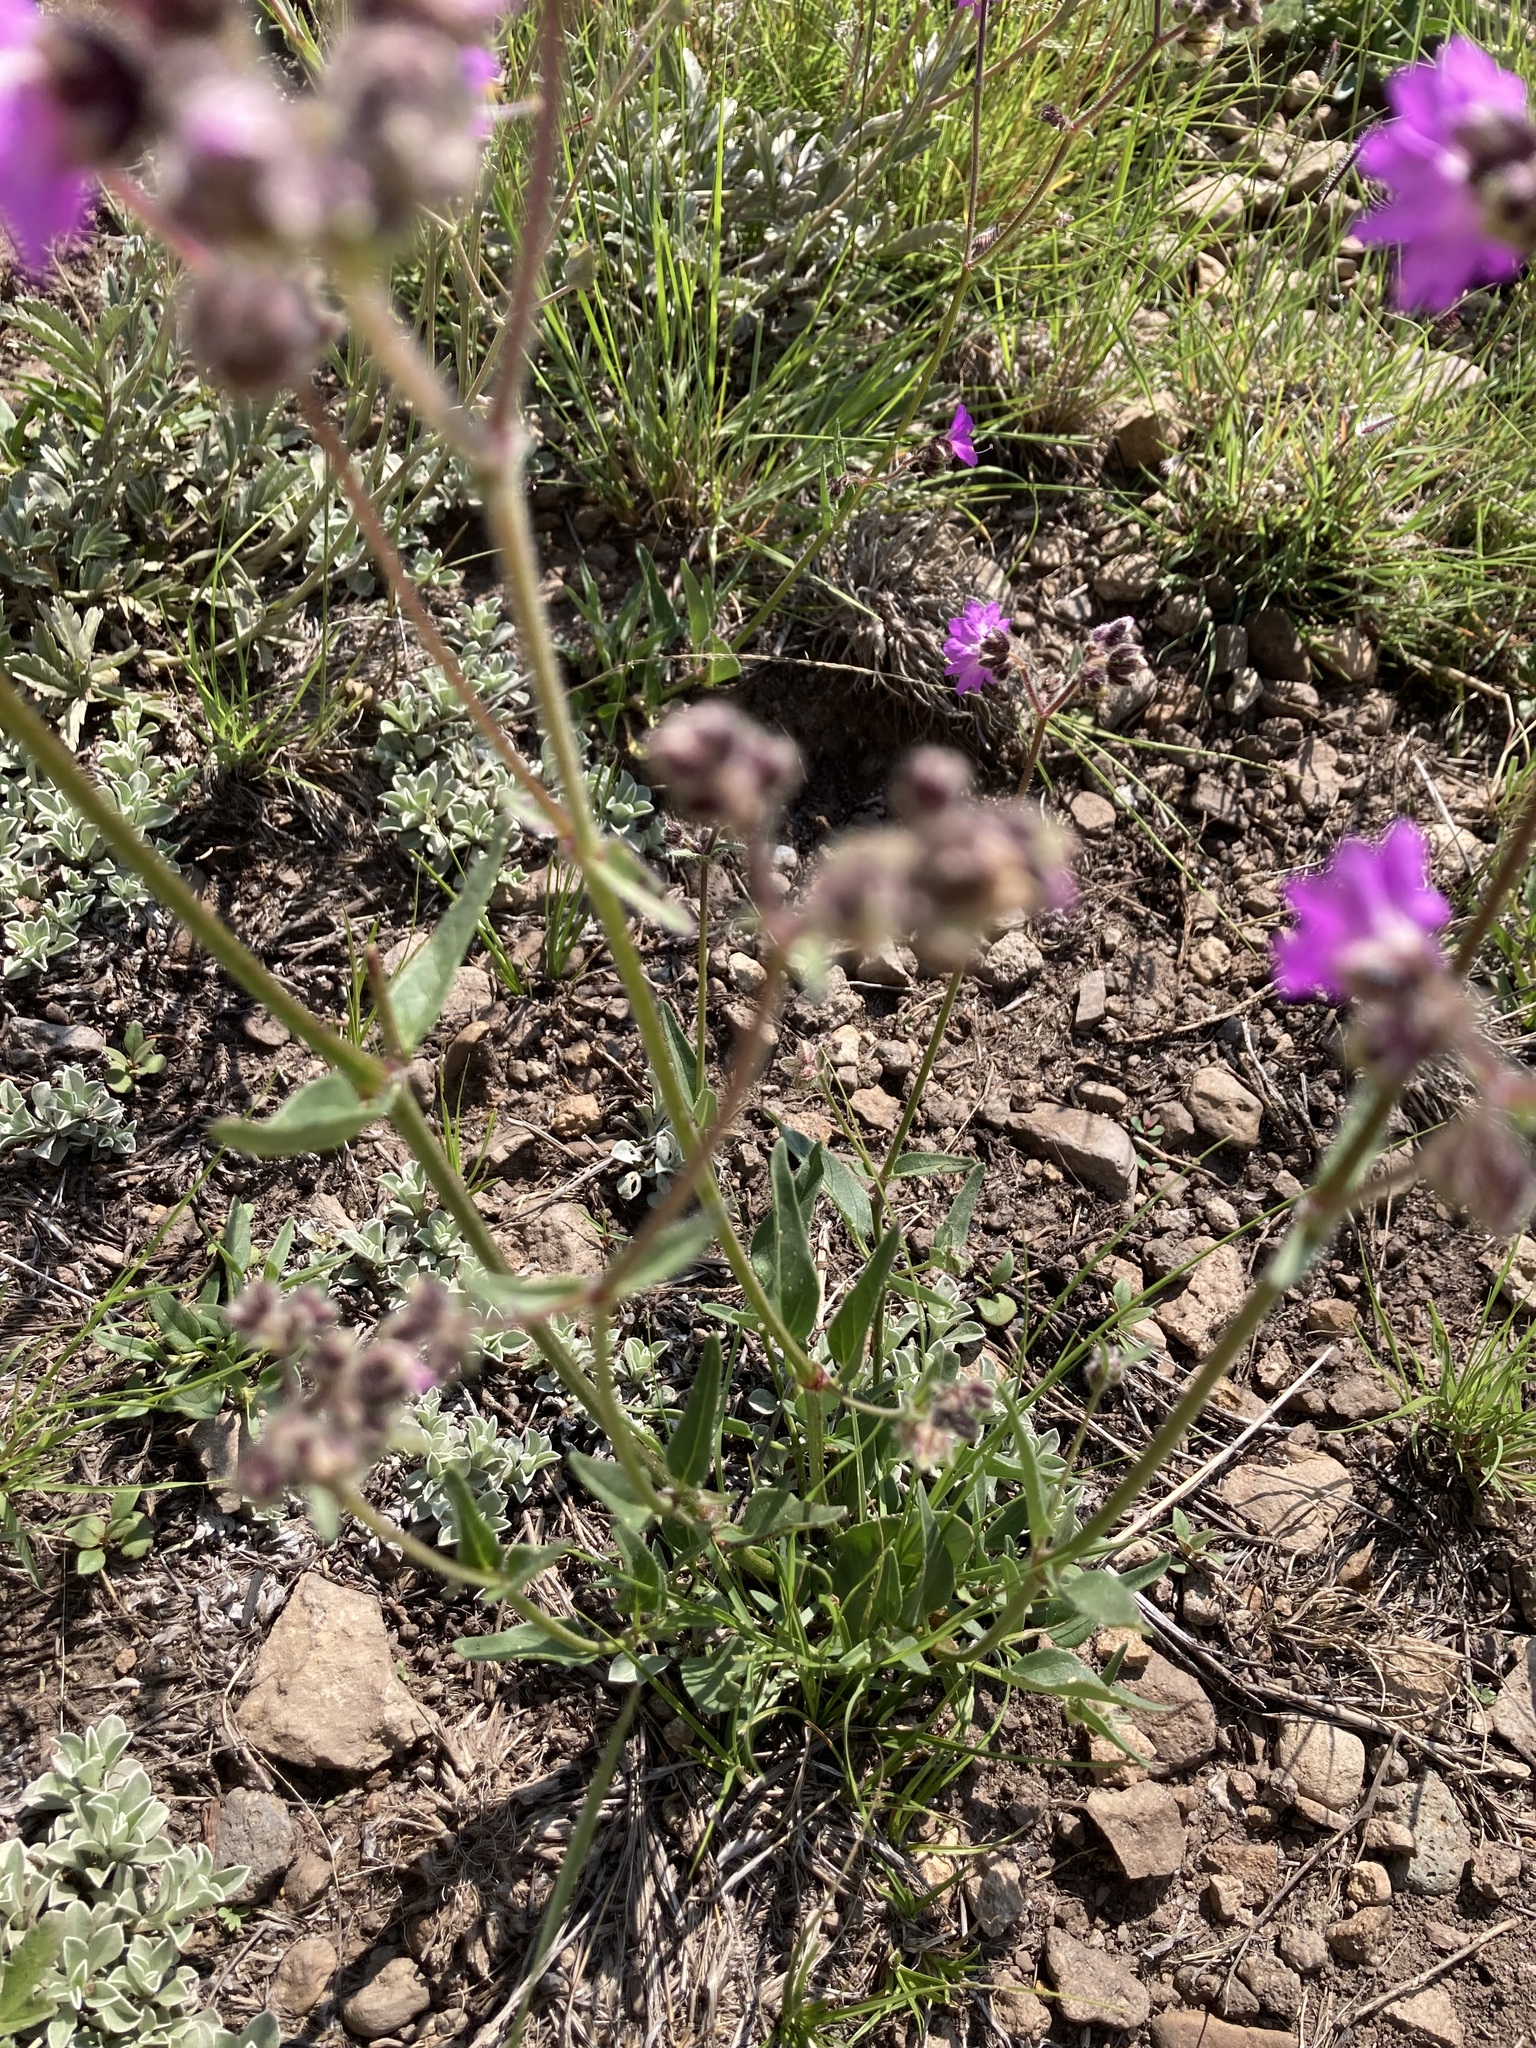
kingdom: Plantae
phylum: Tracheophyta
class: Magnoliopsida
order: Caryophyllales
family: Nyctaginaceae
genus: Mirabilis
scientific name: Mirabilis melanotricha
